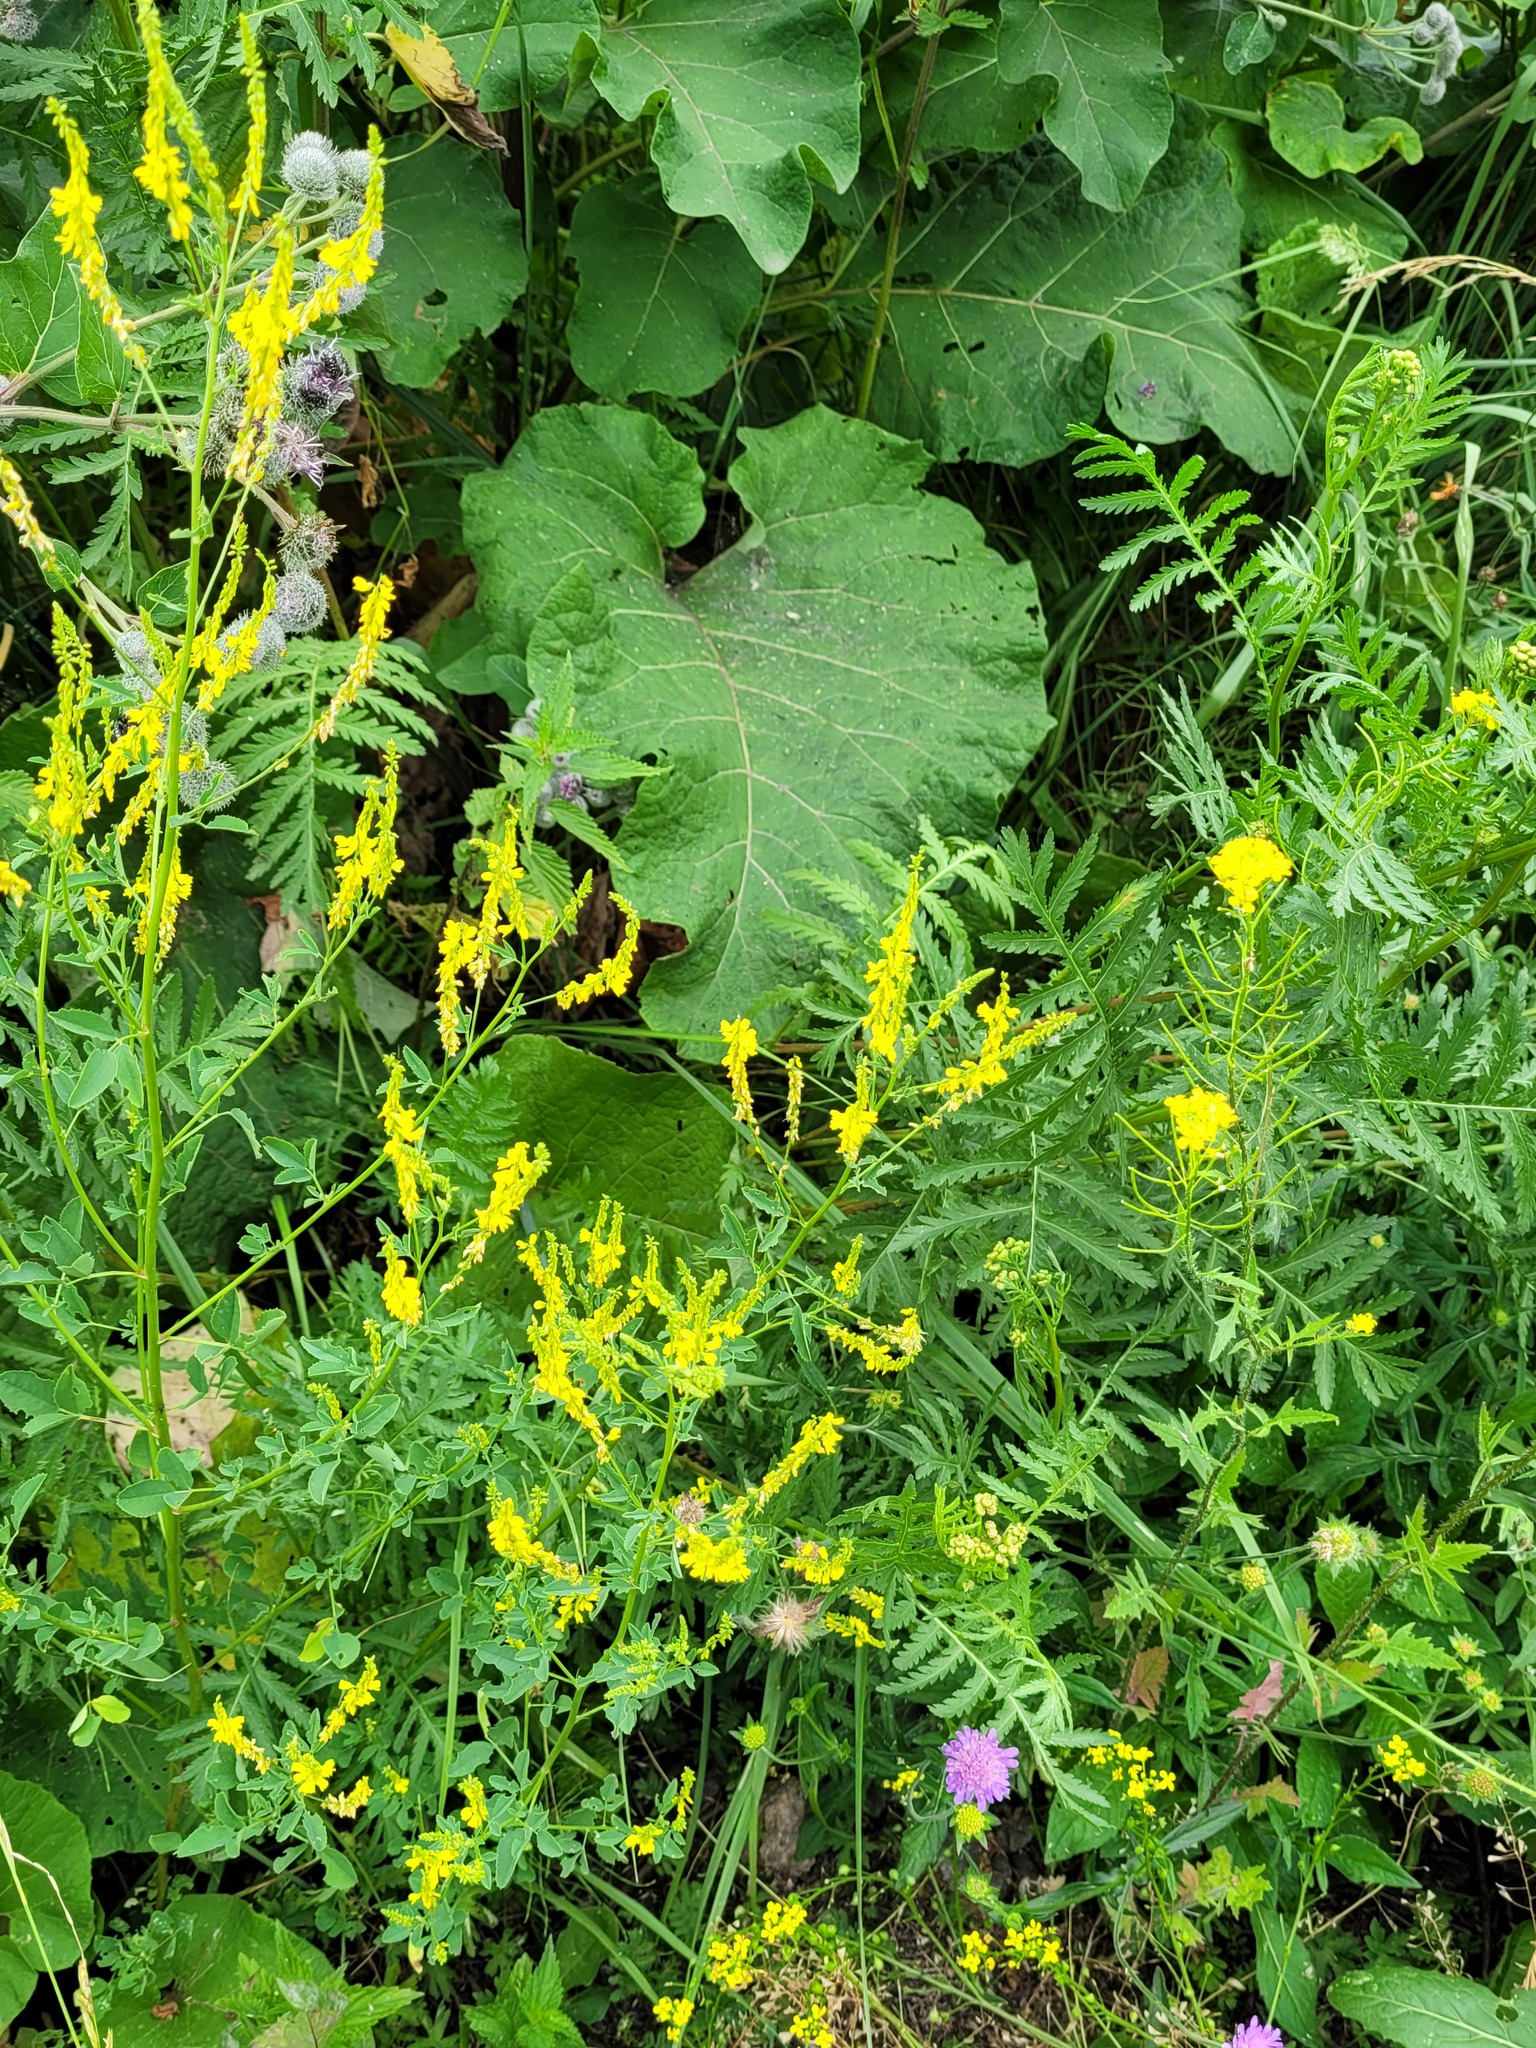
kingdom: Plantae
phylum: Tracheophyta
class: Magnoliopsida
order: Fabales
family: Fabaceae
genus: Melilotus
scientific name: Melilotus officinalis
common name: Sweetclover
